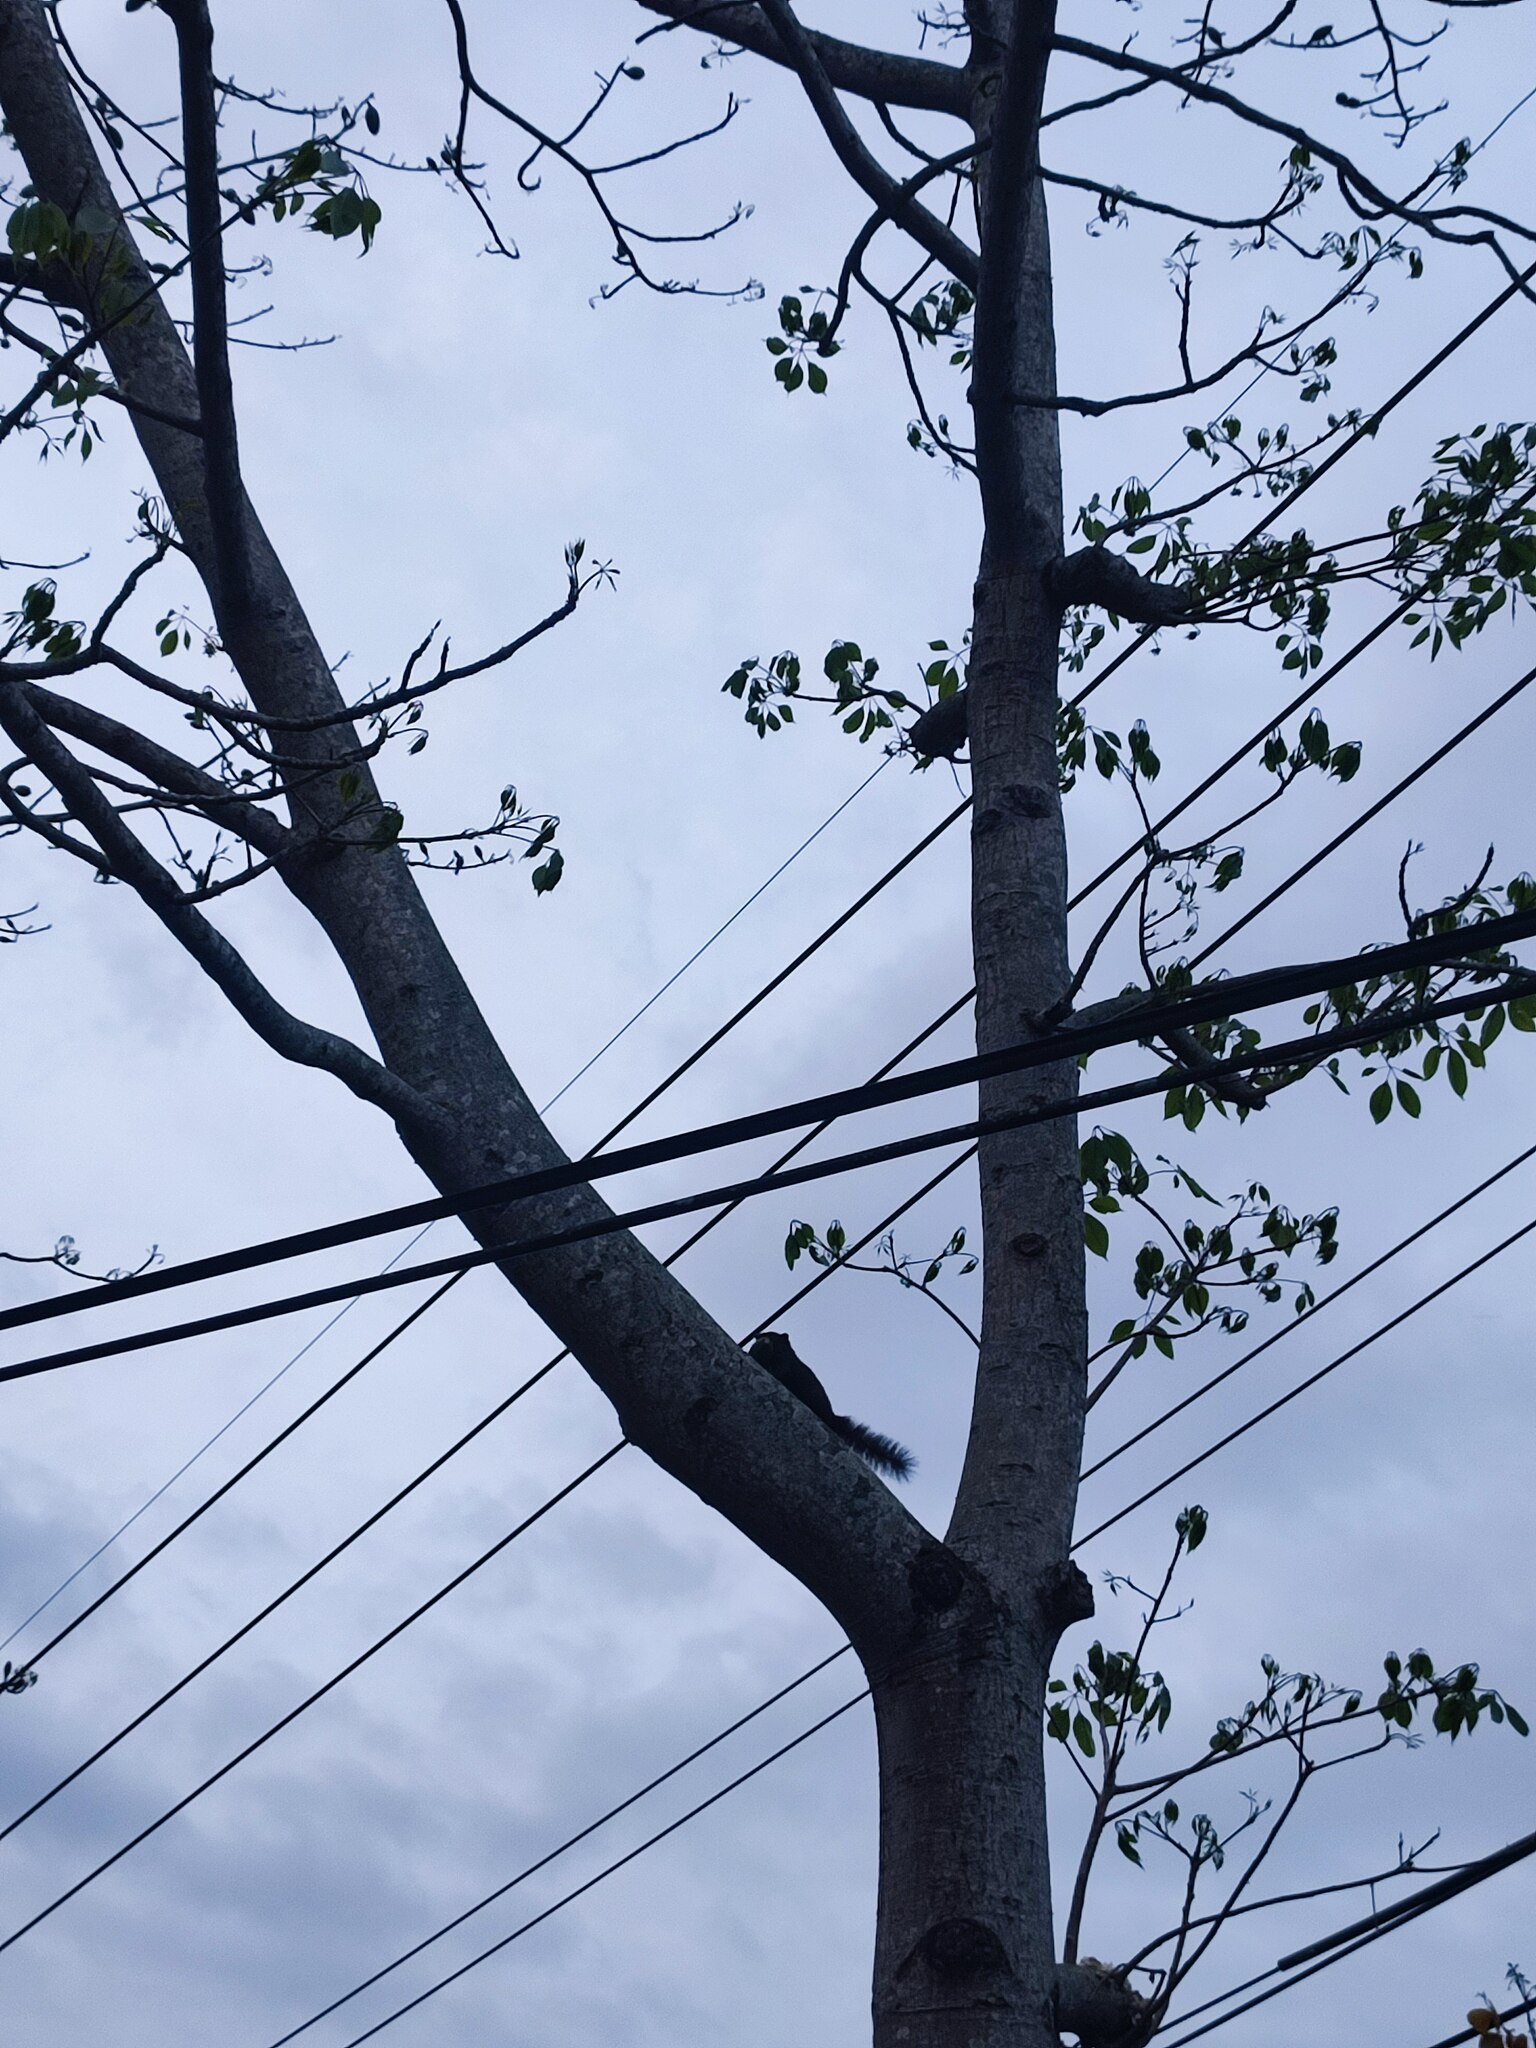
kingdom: Animalia
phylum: Chordata
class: Mammalia
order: Rodentia
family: Sciuridae
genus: Callosciurus
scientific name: Callosciurus erythraeus
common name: Pallas's squirrel
